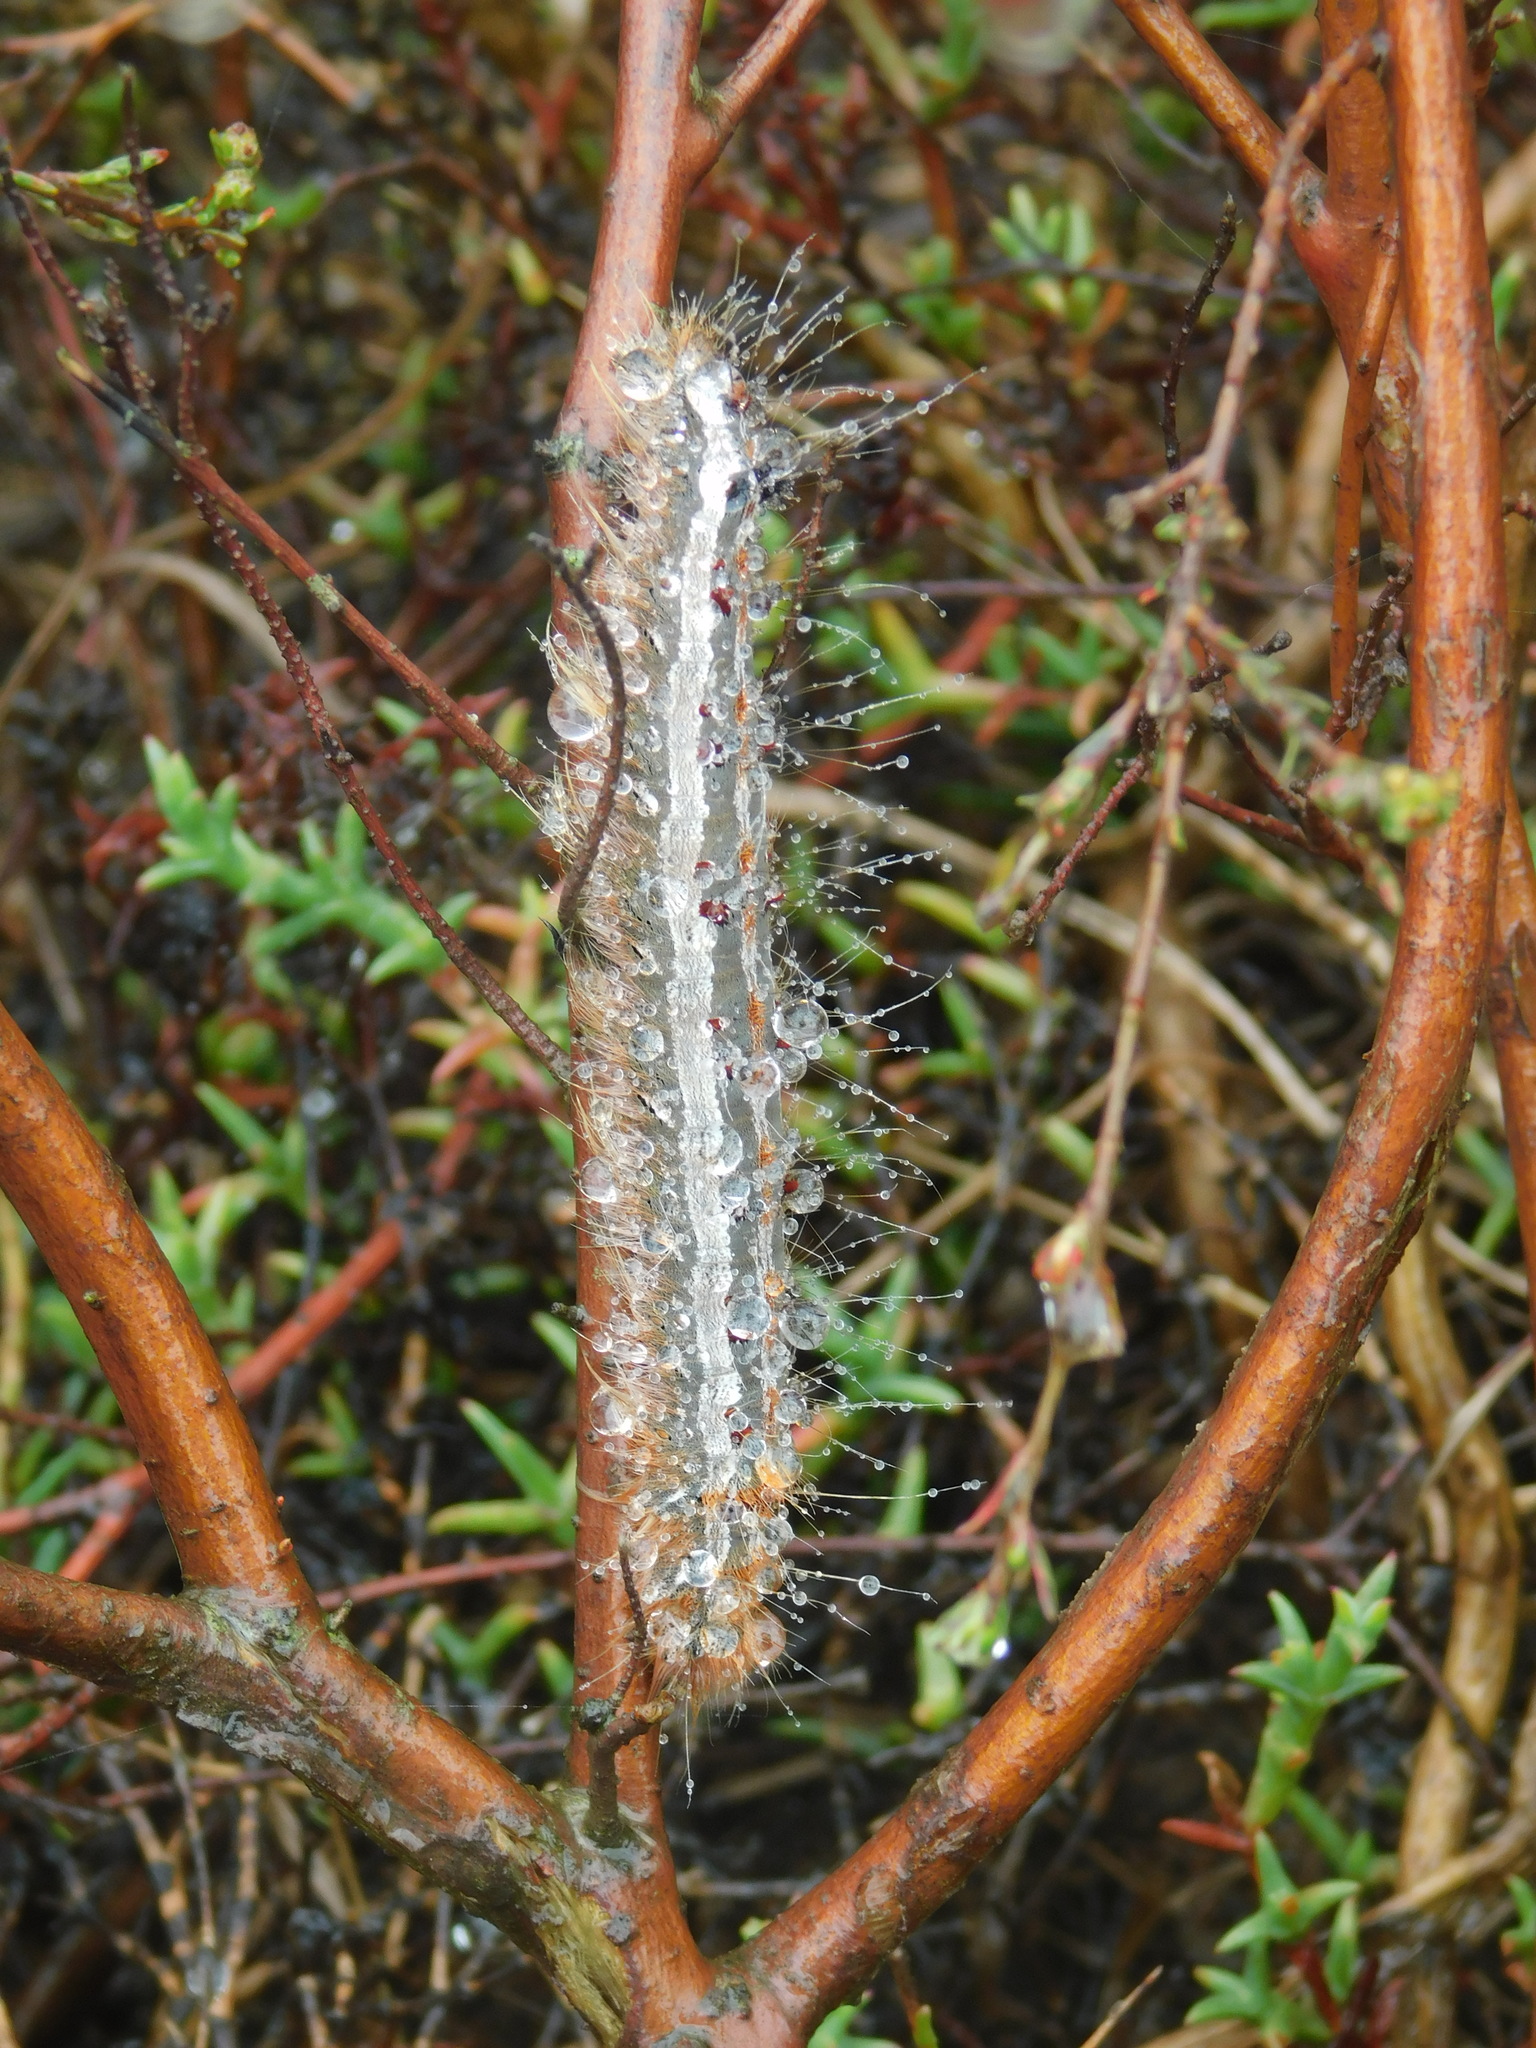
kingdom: Animalia
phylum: Arthropoda
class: Insecta
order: Lepidoptera
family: Lasiocampidae
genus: Streblote
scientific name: Streblote cristata
